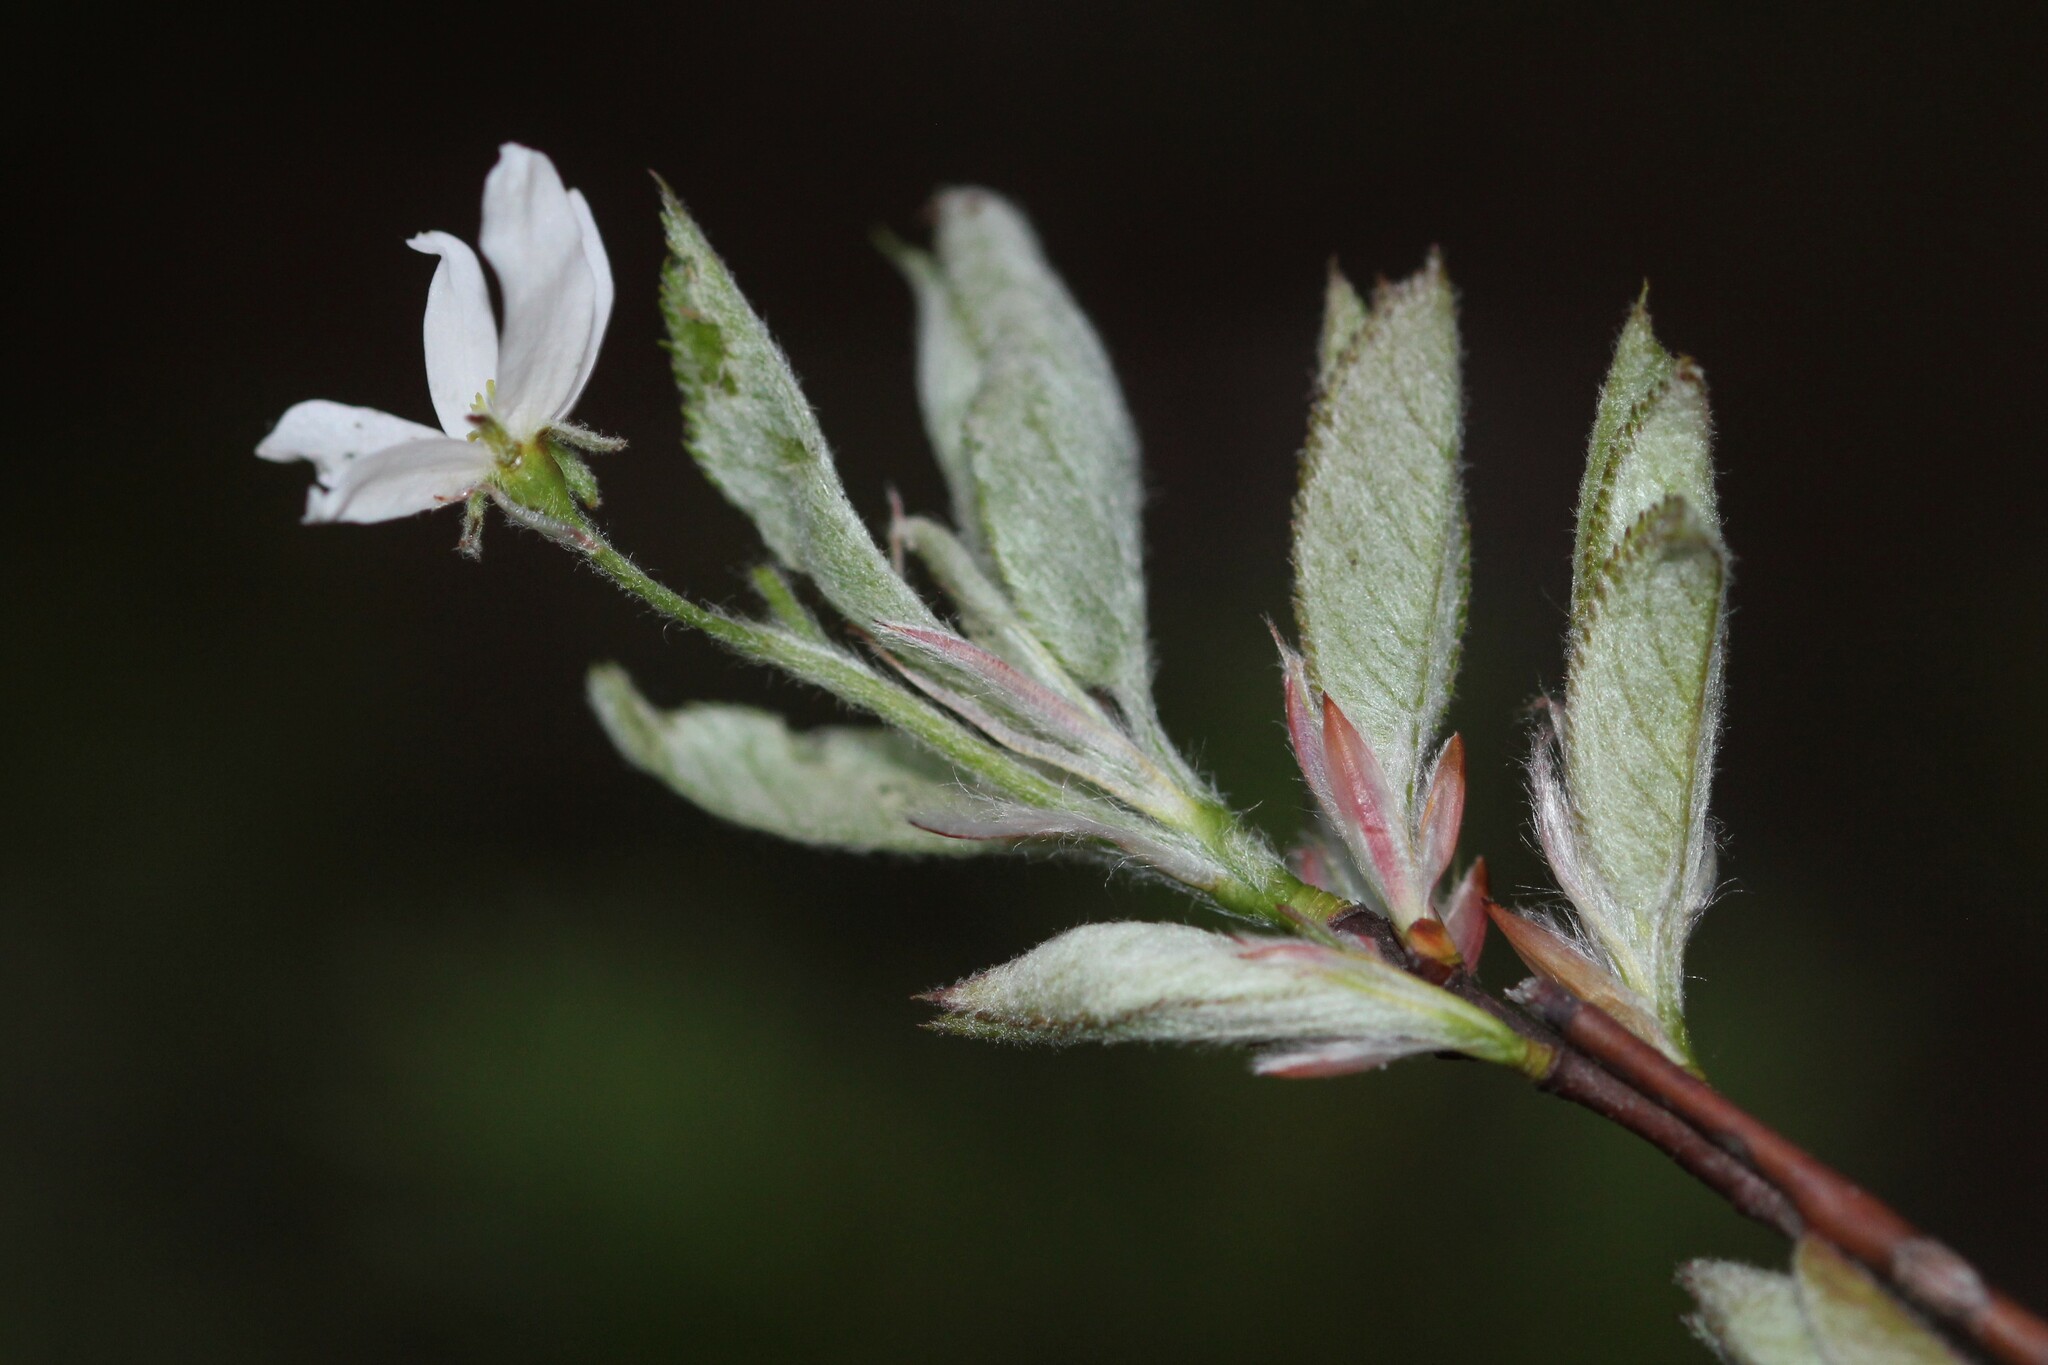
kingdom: Plantae
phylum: Tracheophyta
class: Magnoliopsida
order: Rosales
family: Rosaceae
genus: Amelanchier
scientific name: Amelanchier laevis
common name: Allegheny serviceberry
